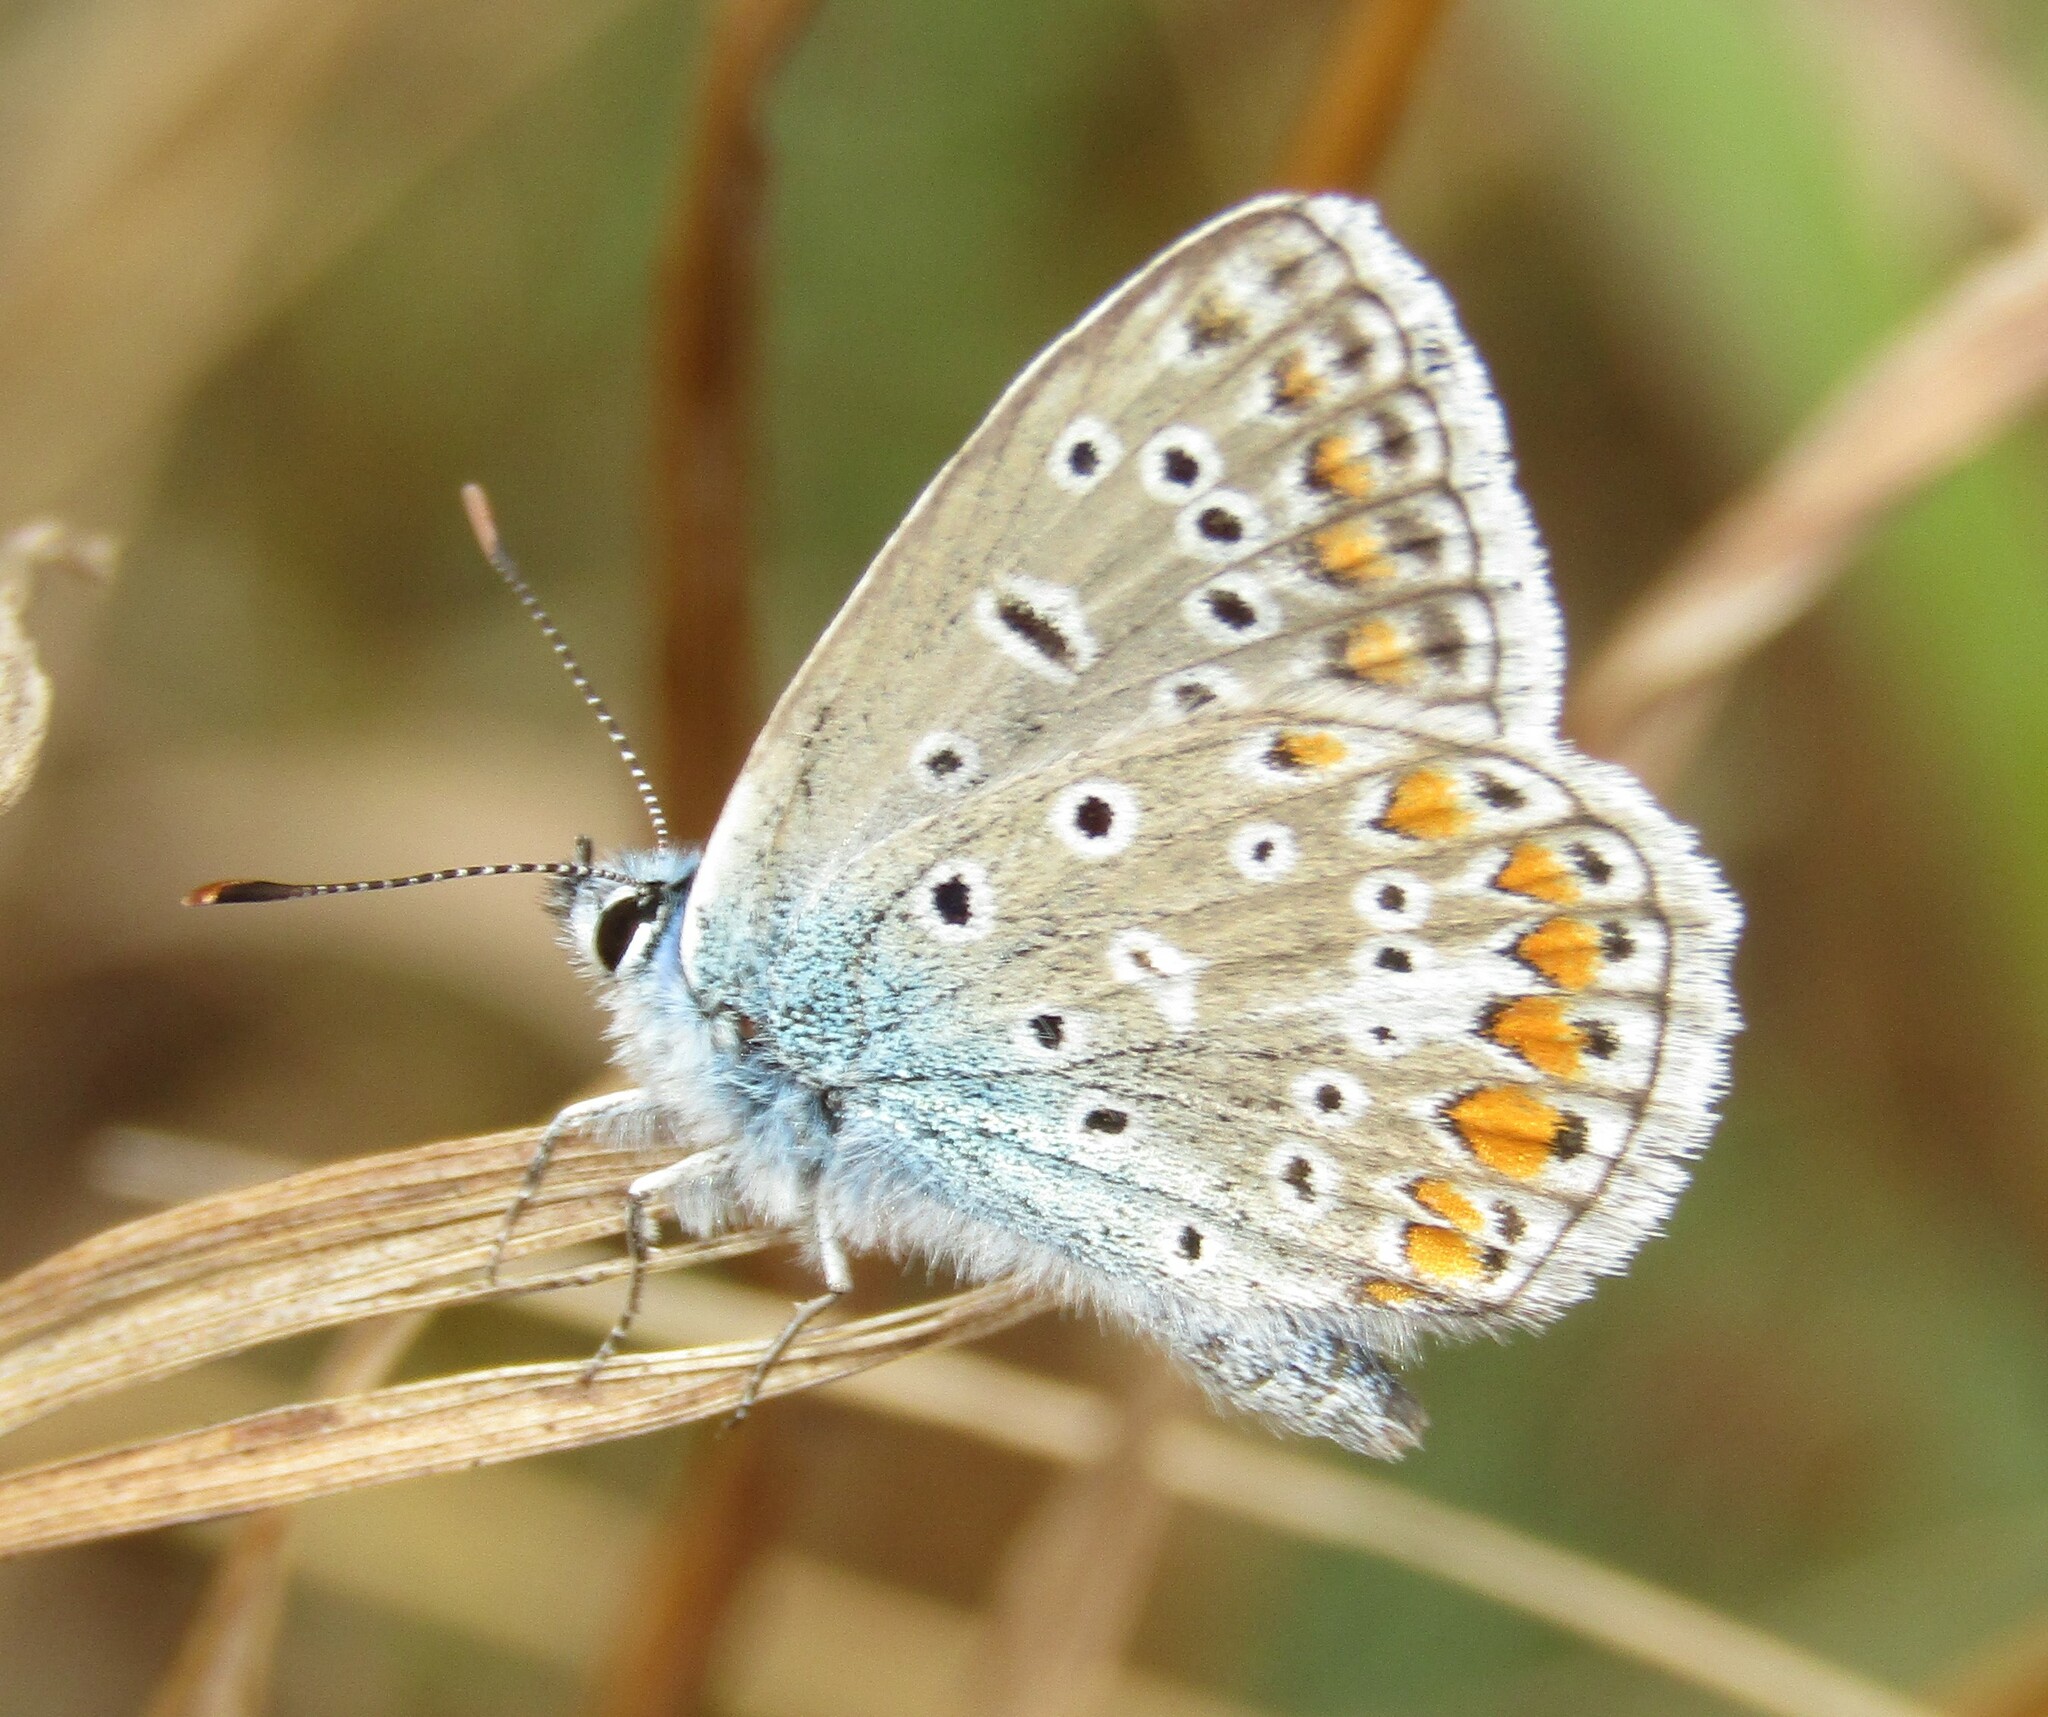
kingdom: Animalia
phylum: Arthropoda
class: Insecta
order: Lepidoptera
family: Lycaenidae
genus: Polyommatus
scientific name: Polyommatus icarus
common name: Common blue
